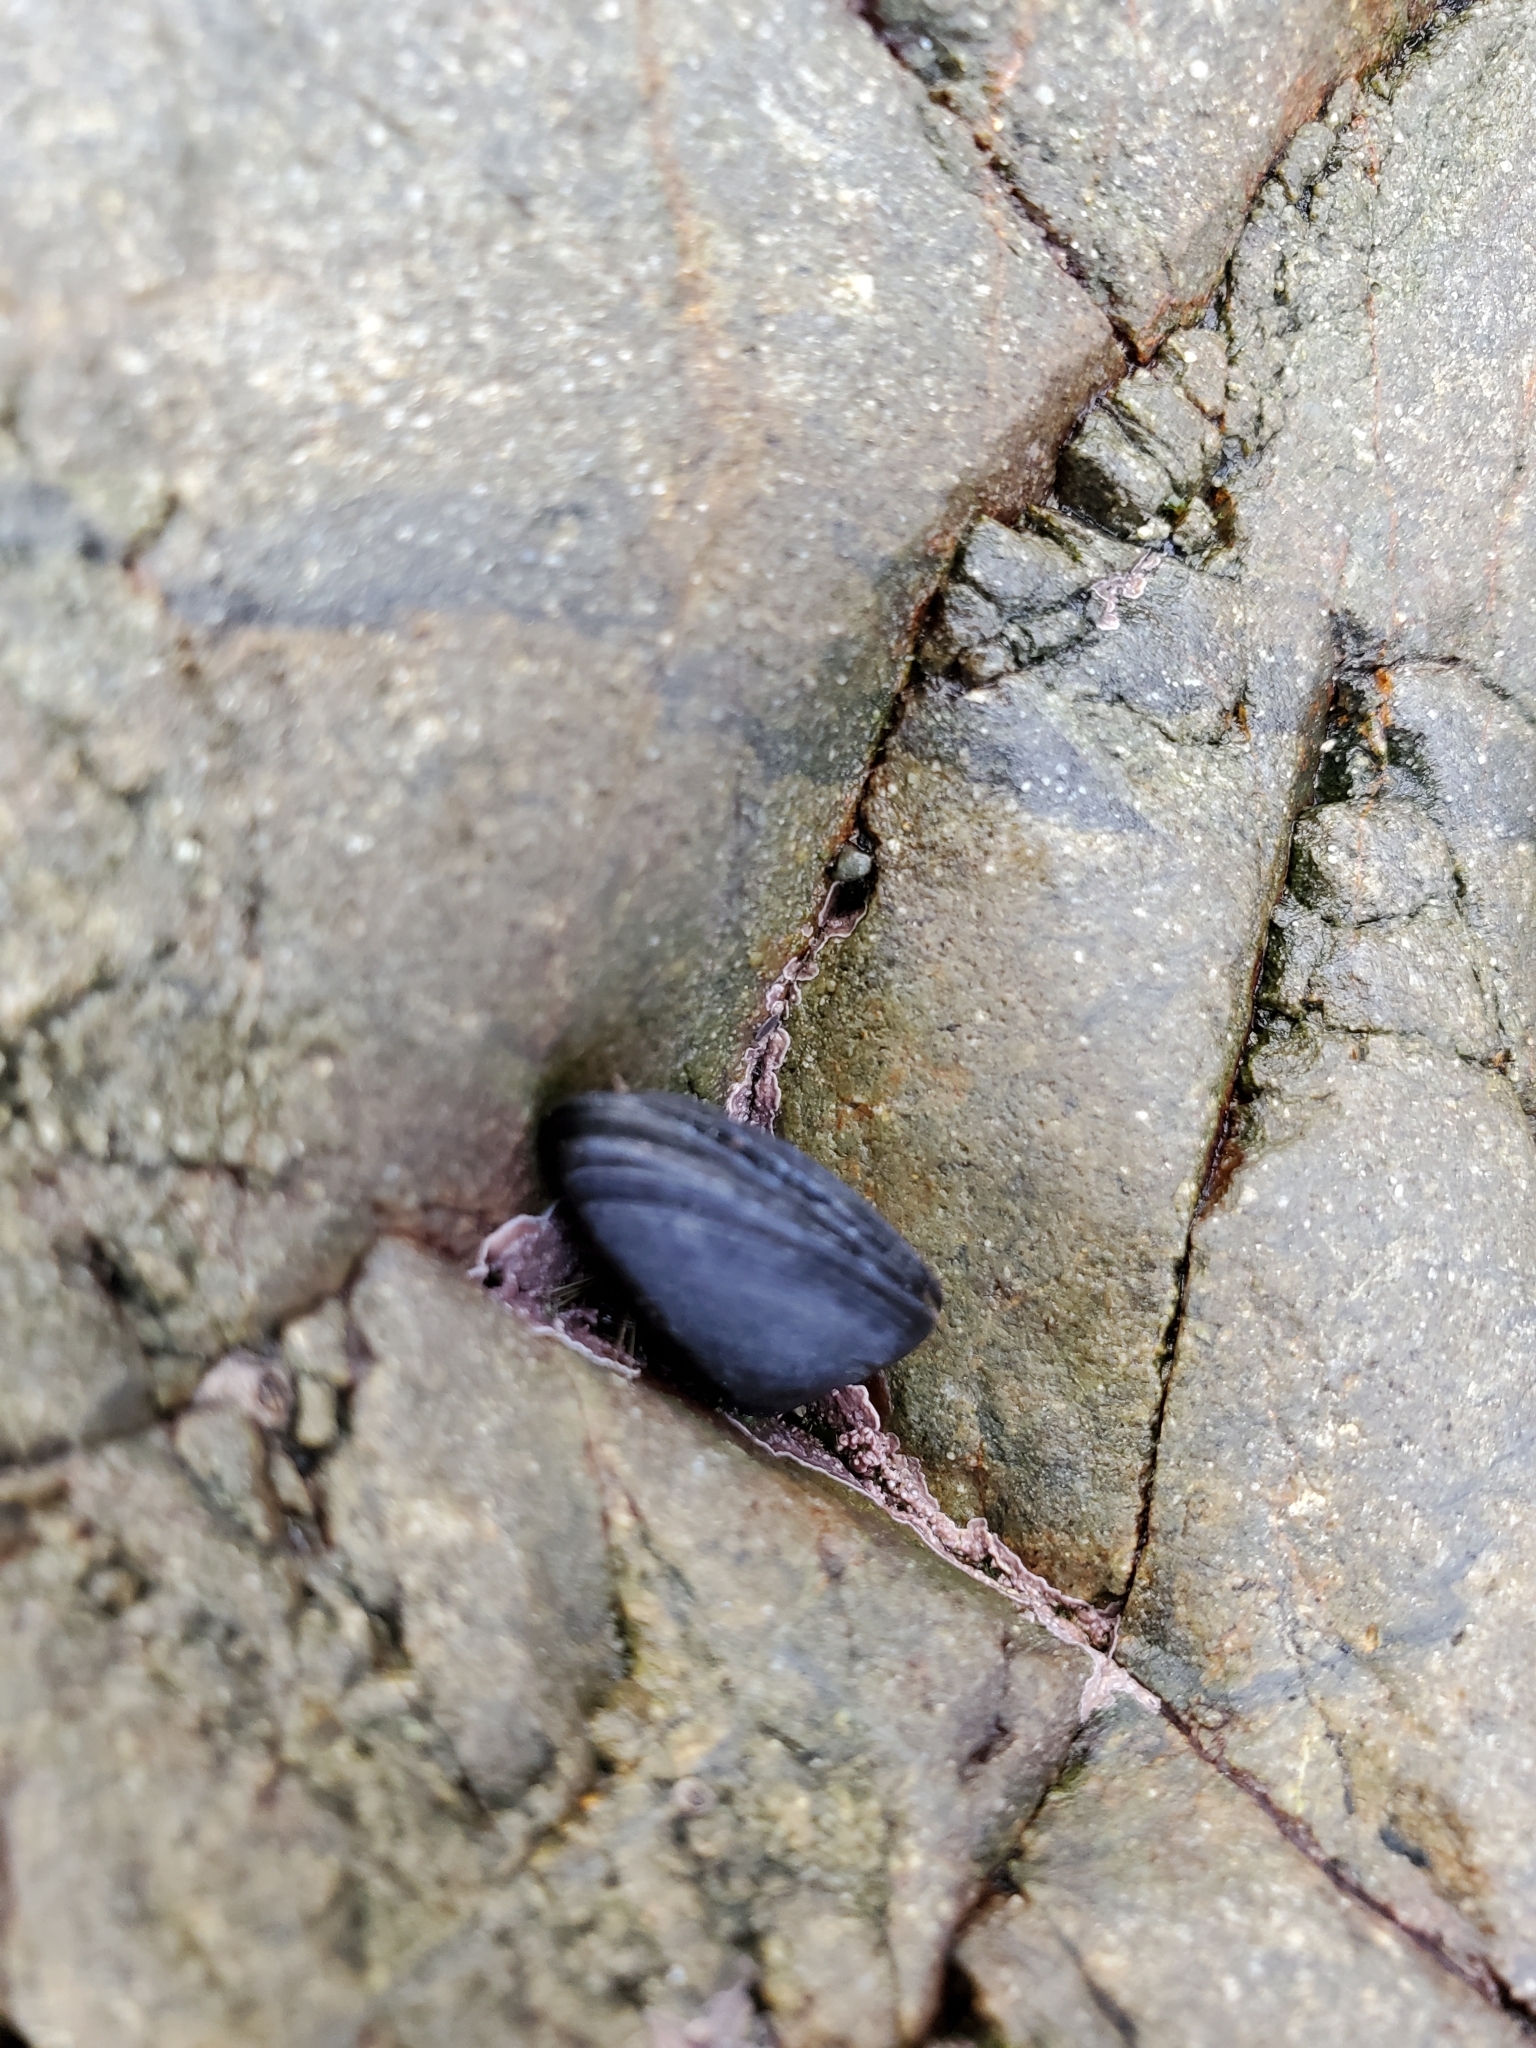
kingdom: Animalia
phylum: Mollusca
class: Bivalvia
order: Mytilida
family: Mytilidae
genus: Mytilus
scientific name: Mytilus planulatus
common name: Australian mussel
